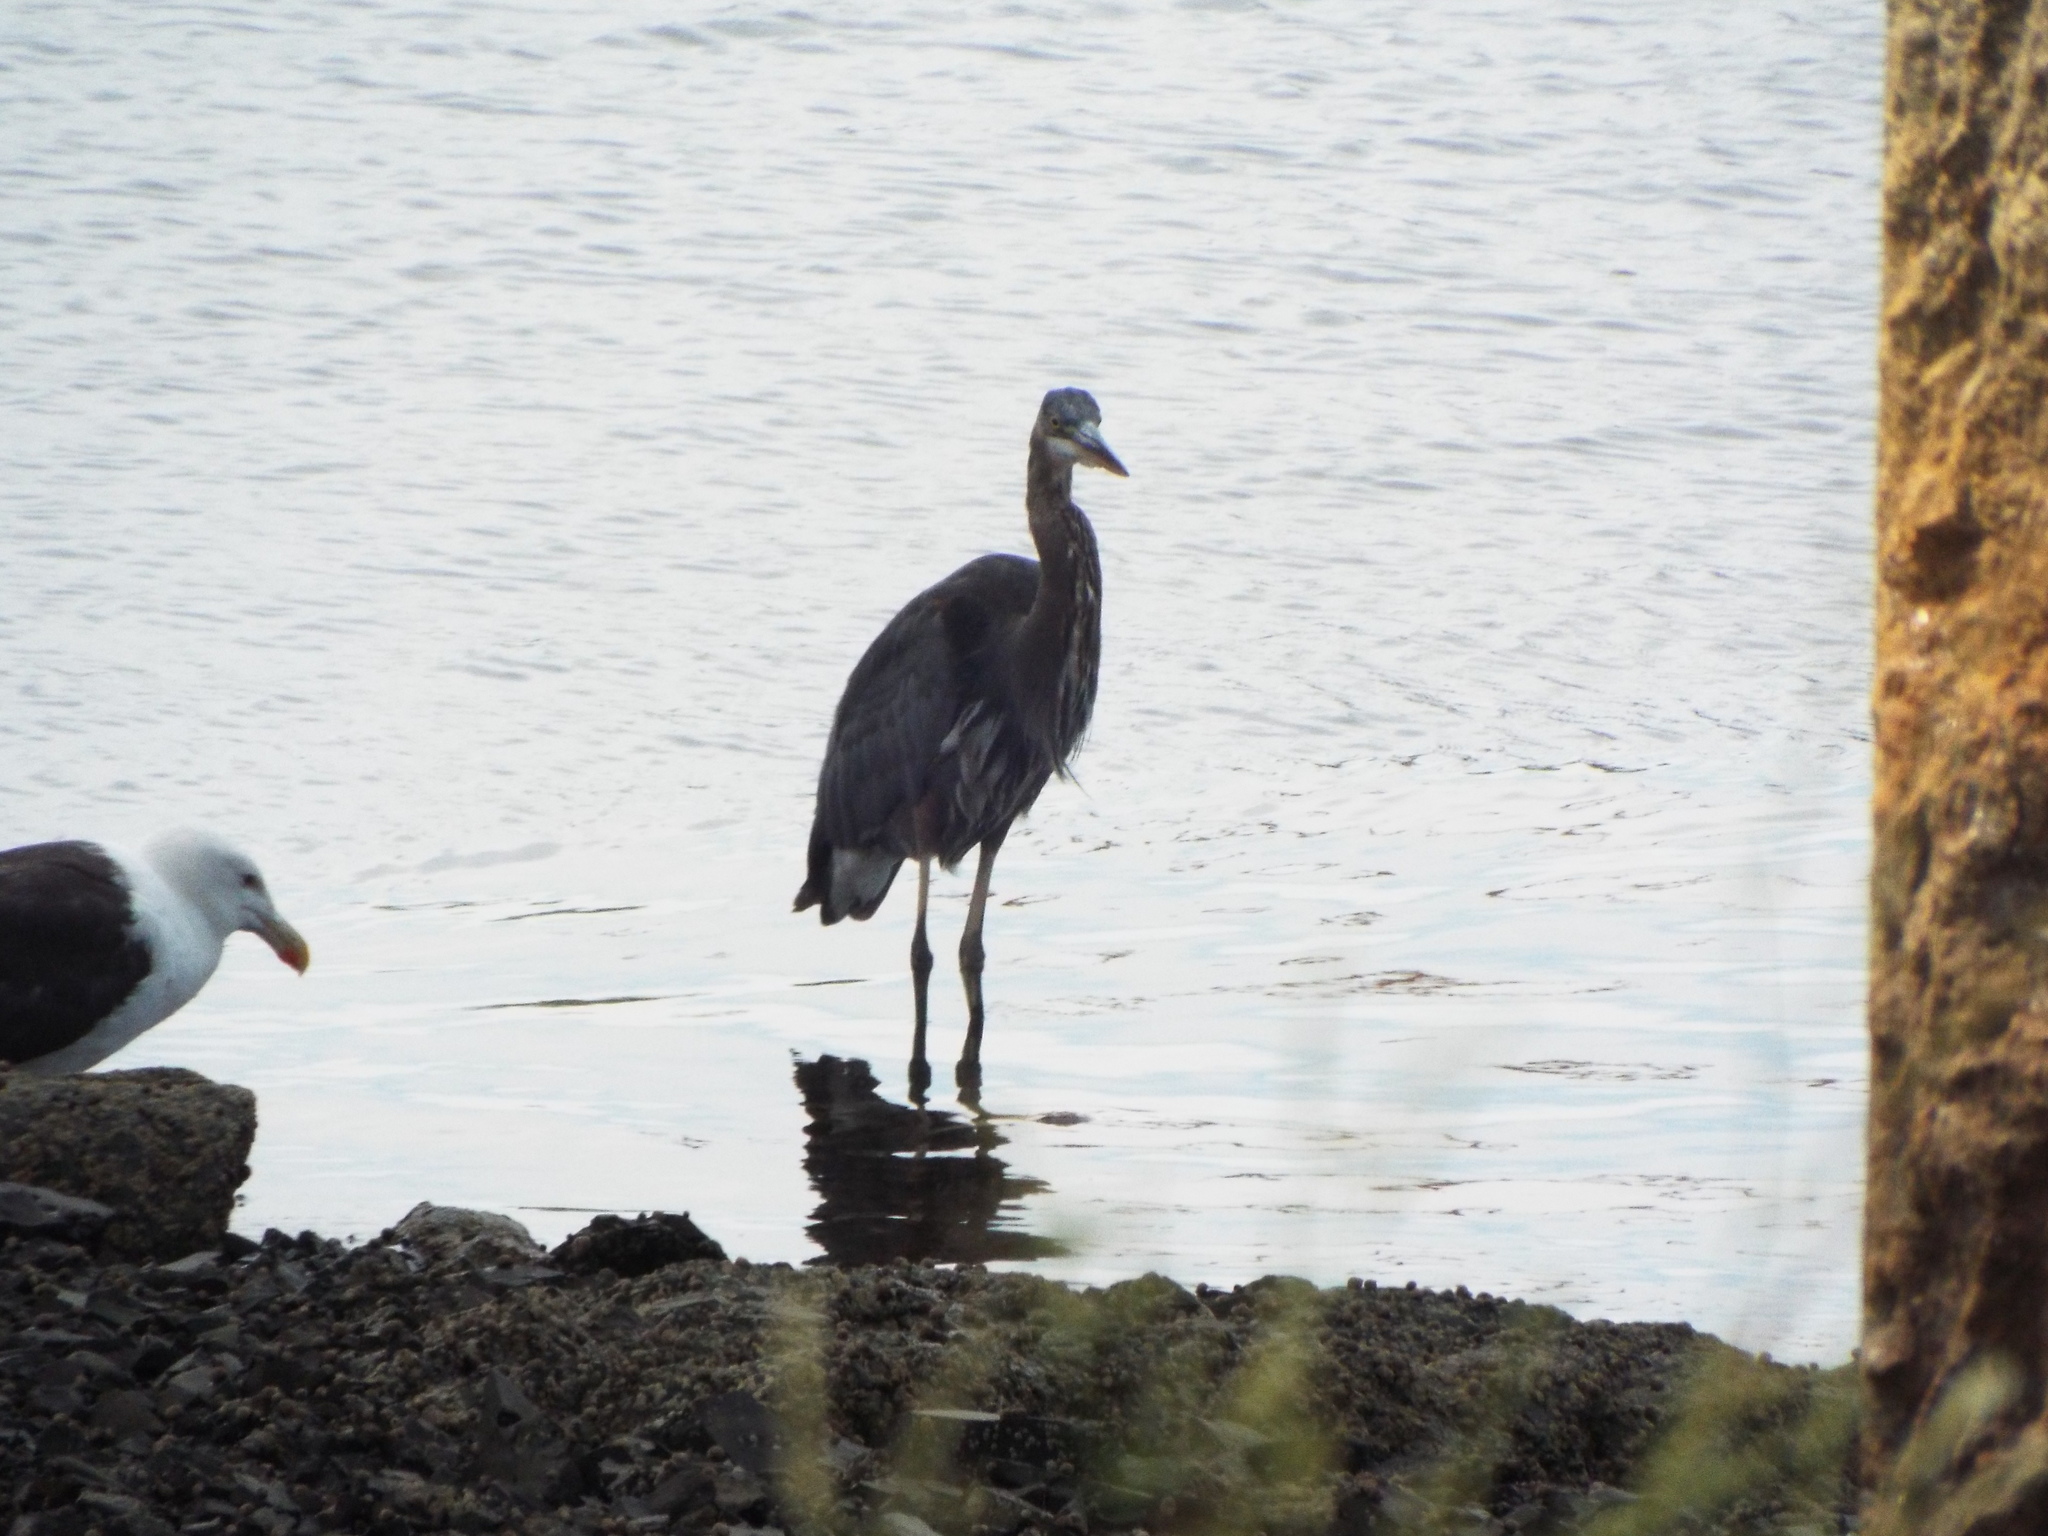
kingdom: Animalia
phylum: Chordata
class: Aves
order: Pelecaniformes
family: Ardeidae
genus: Ardea
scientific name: Ardea herodias
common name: Great blue heron
